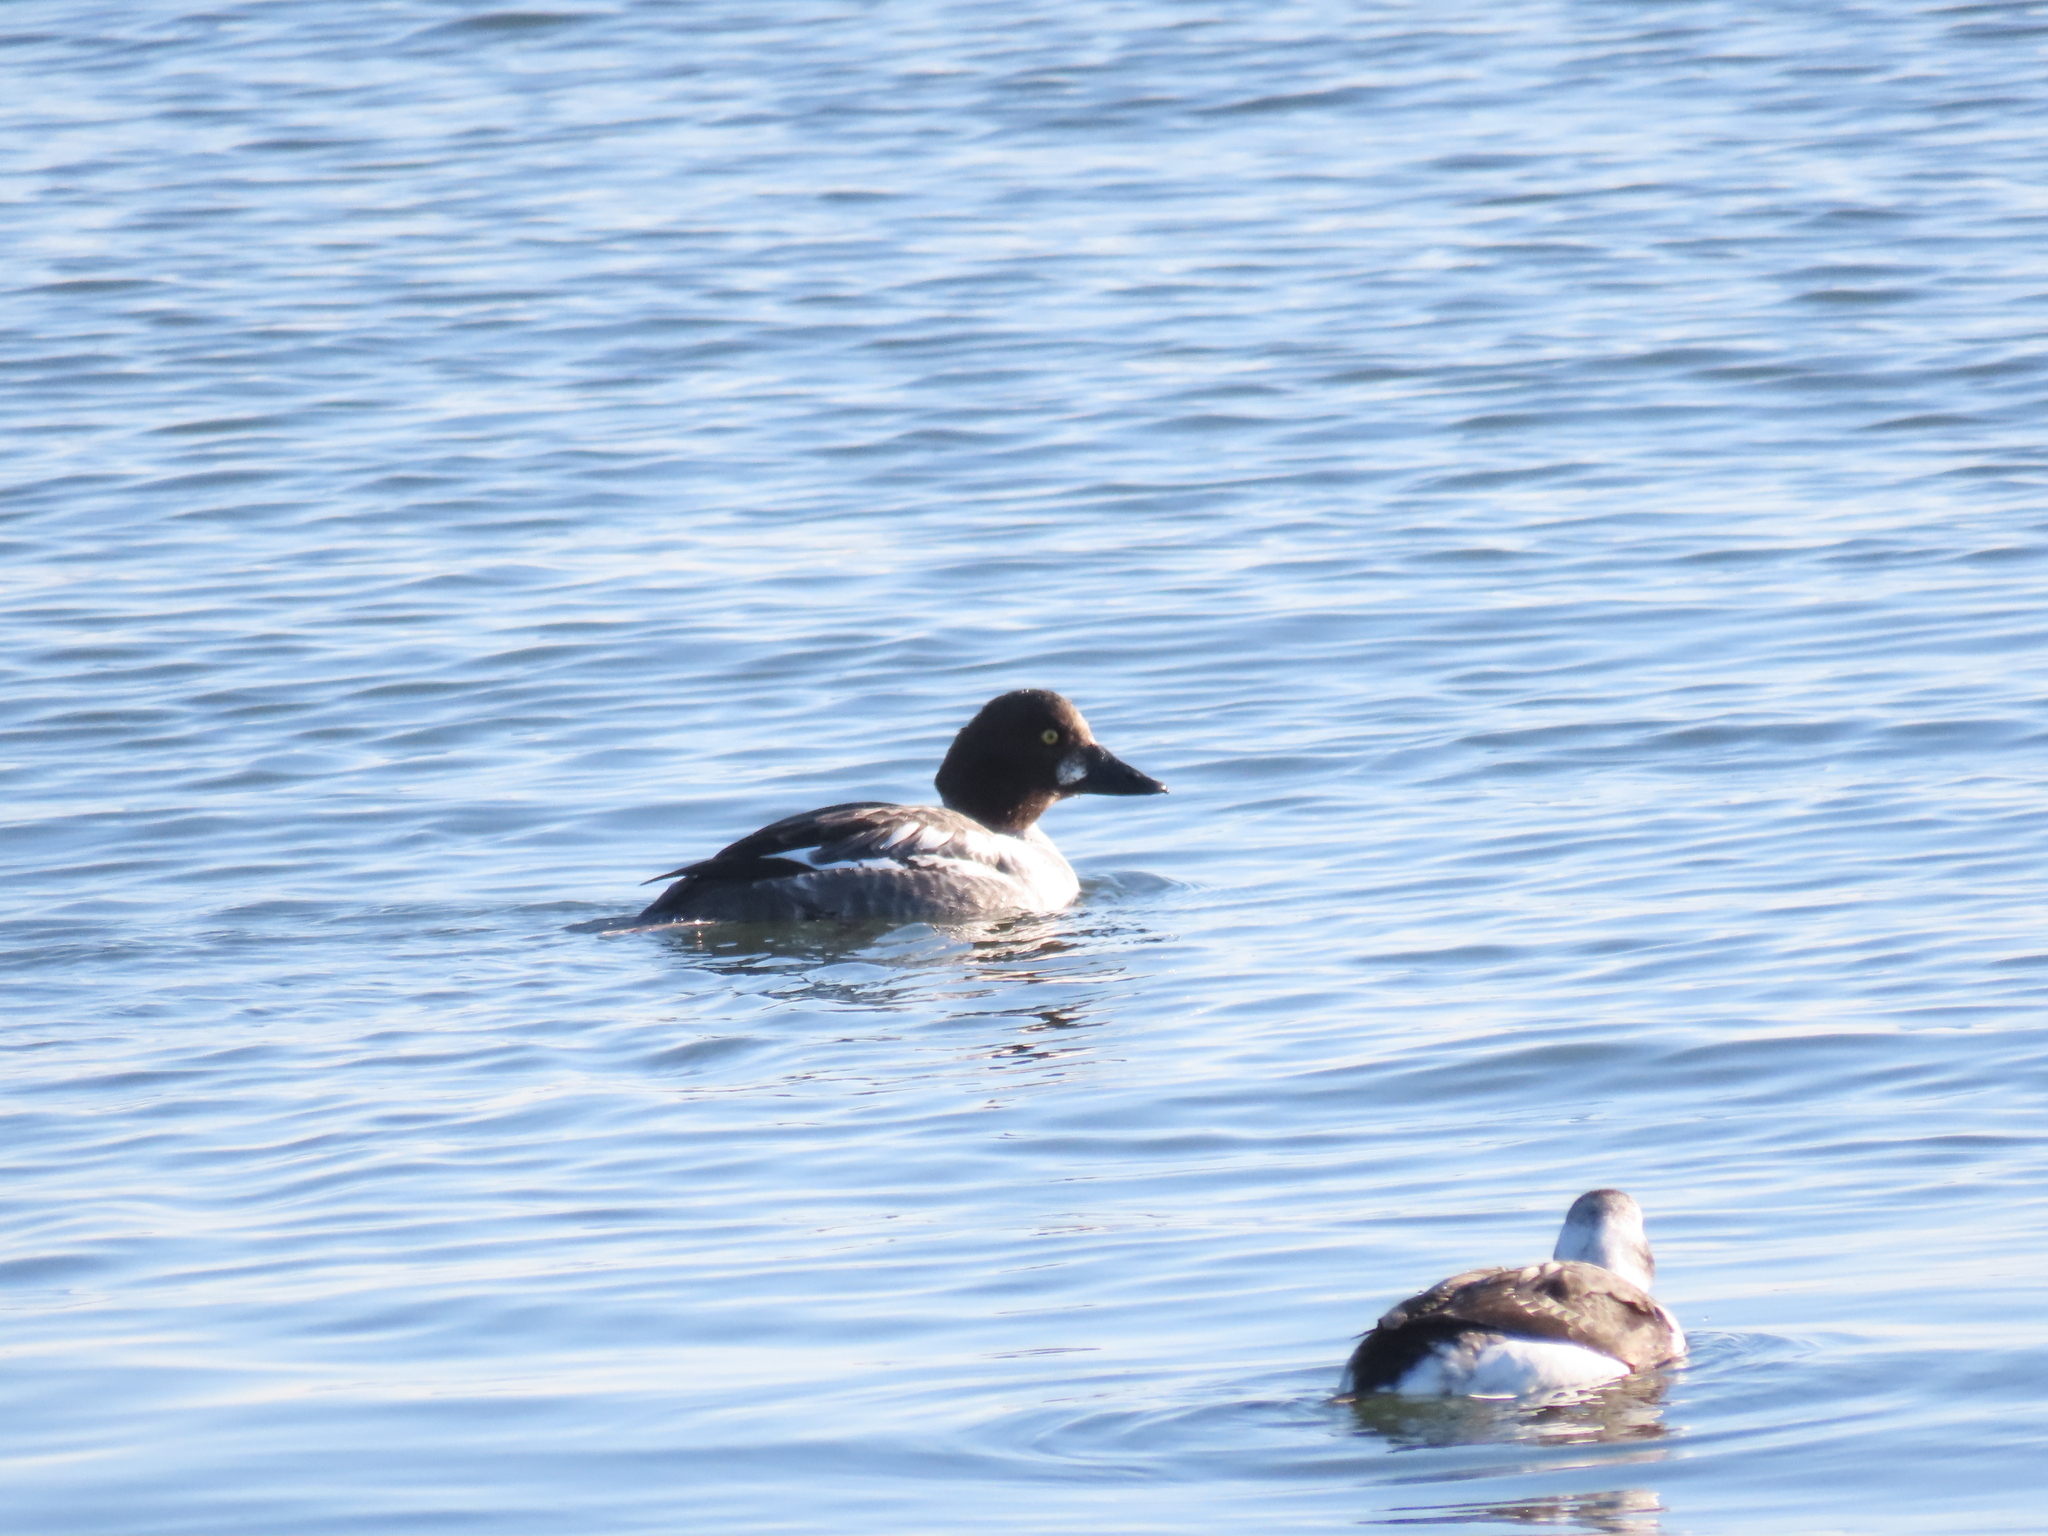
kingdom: Animalia
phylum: Chordata
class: Aves
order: Anseriformes
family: Anatidae
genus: Bucephala
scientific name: Bucephala clangula
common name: Common goldeneye
